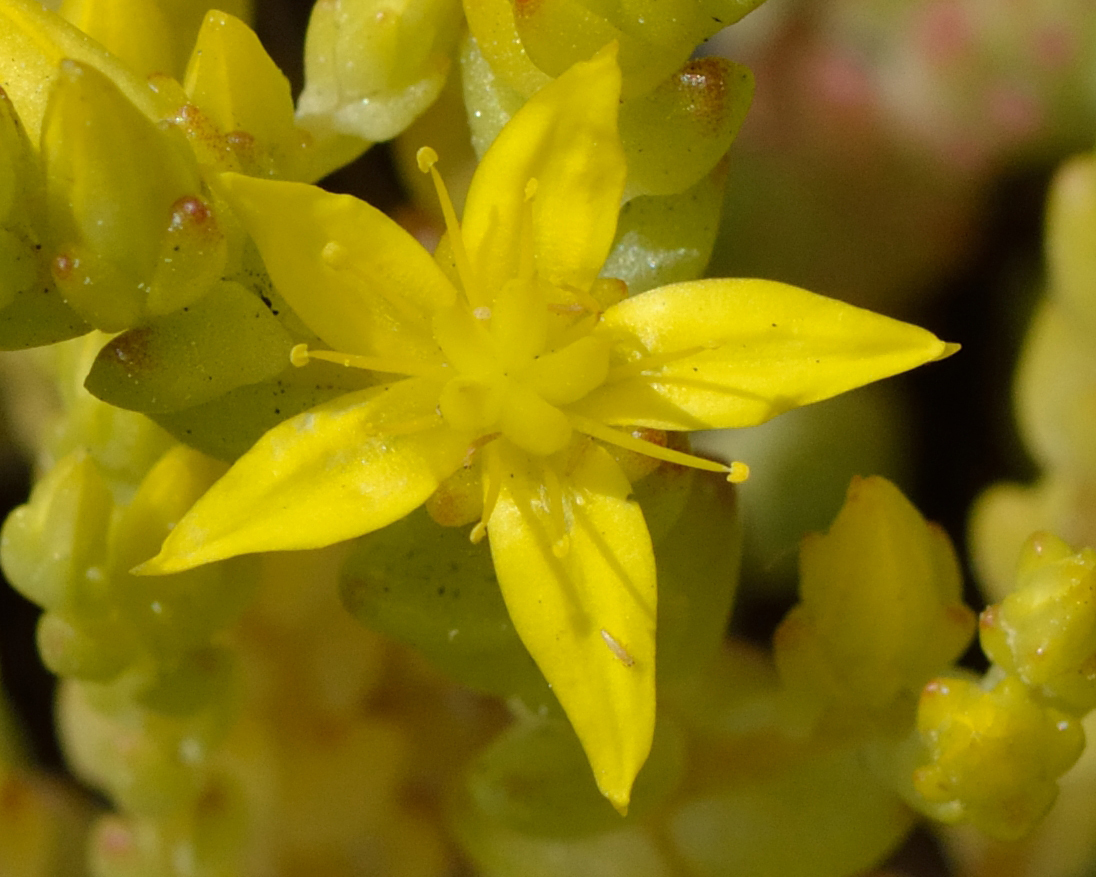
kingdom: Plantae
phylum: Tracheophyta
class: Magnoliopsida
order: Saxifragales
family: Crassulaceae
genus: Sedum
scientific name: Sedum acre
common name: Biting stonecrop
